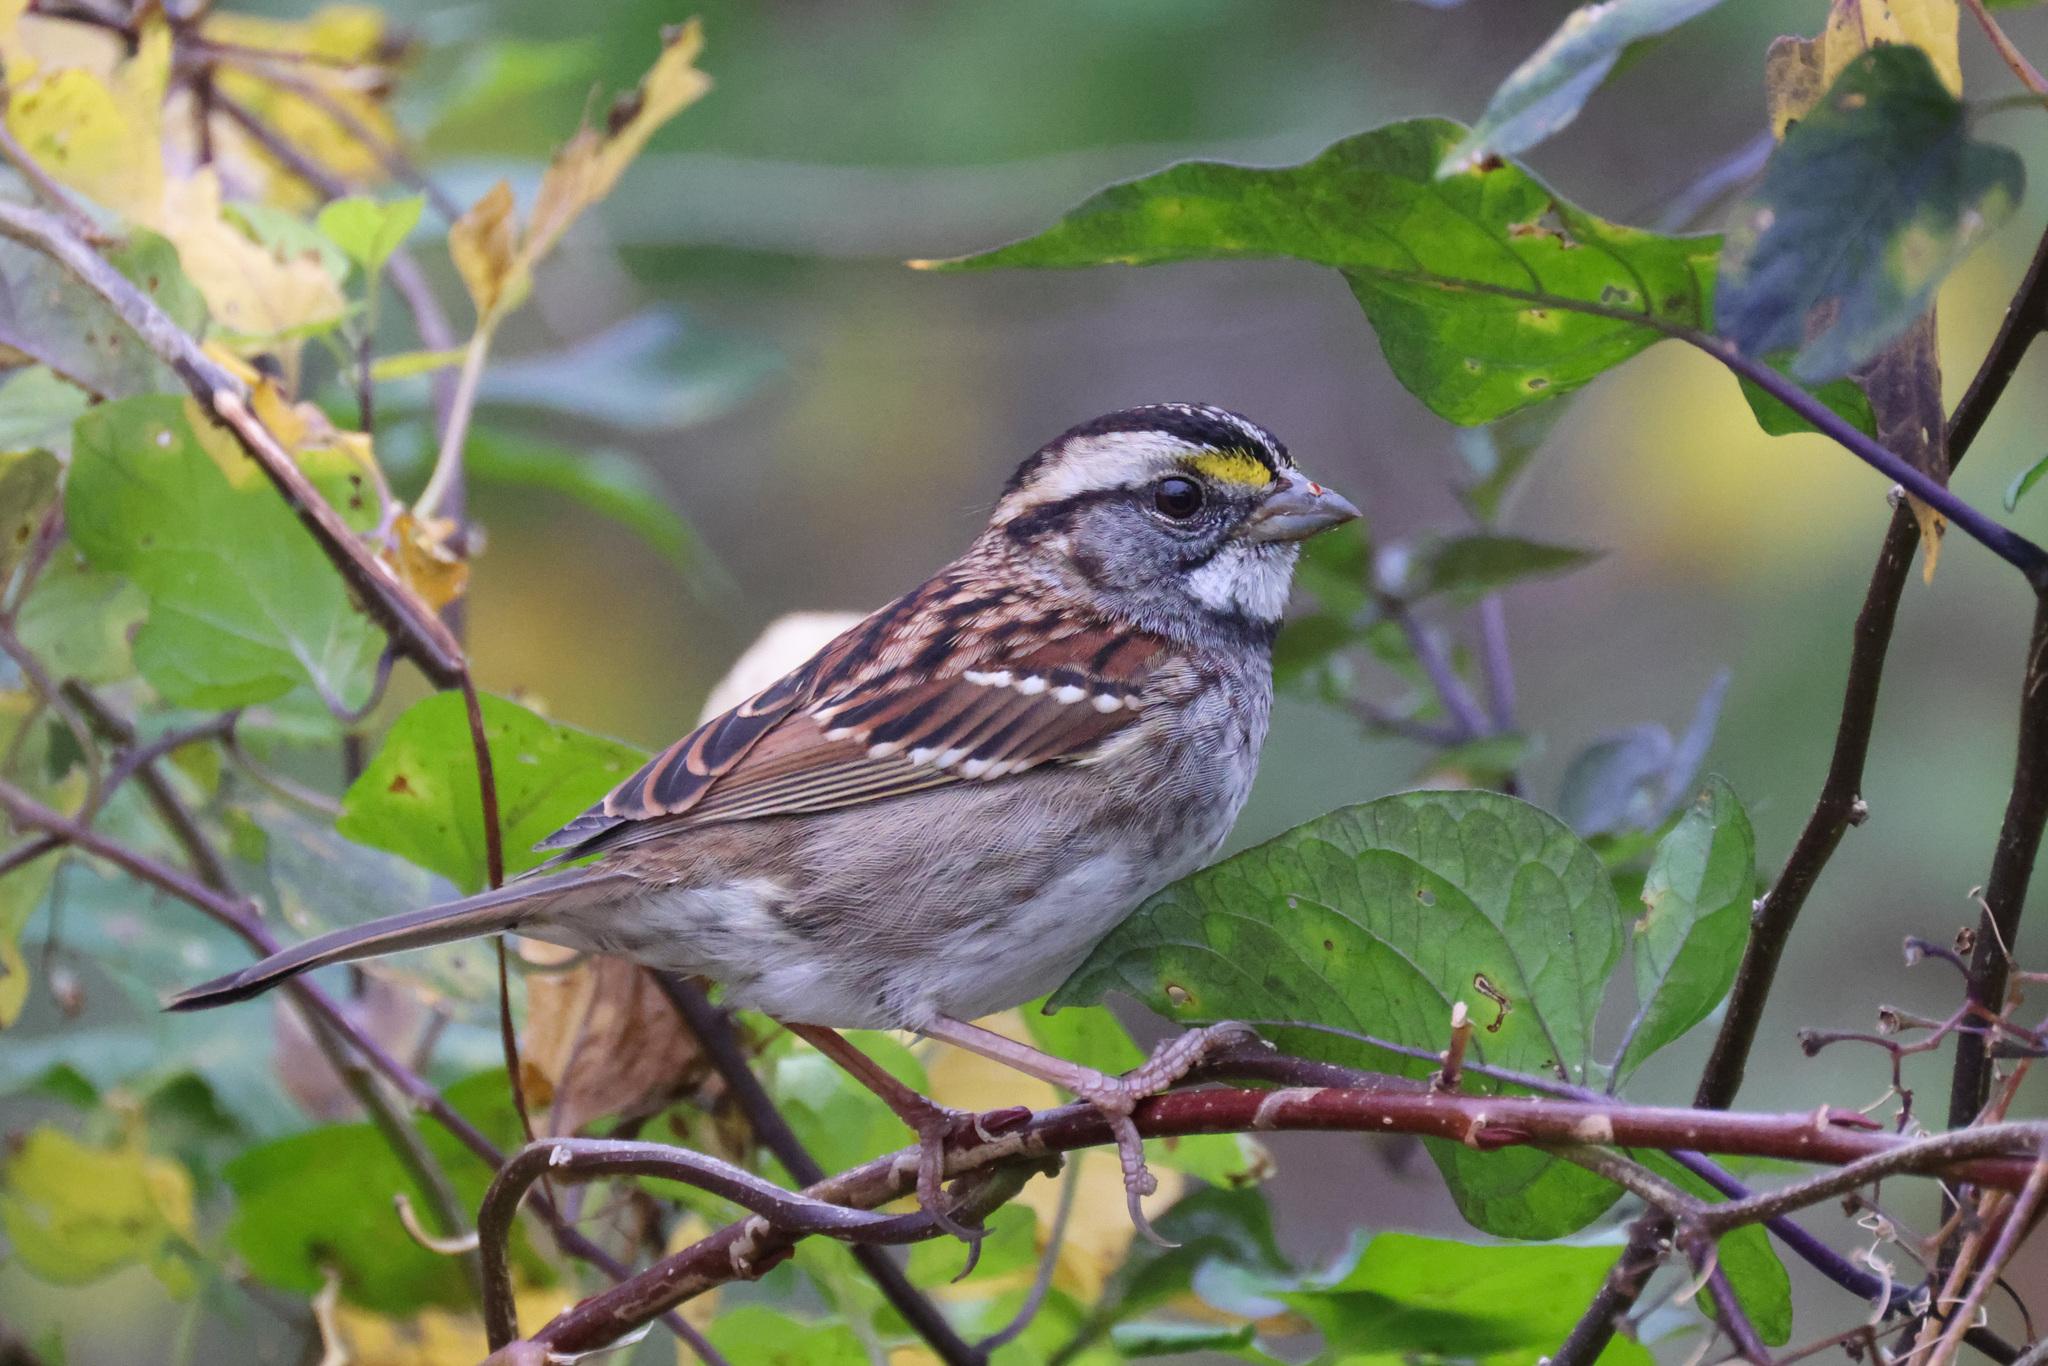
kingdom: Animalia
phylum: Chordata
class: Aves
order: Passeriformes
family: Passerellidae
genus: Zonotrichia
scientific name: Zonotrichia albicollis
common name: White-throated sparrow
